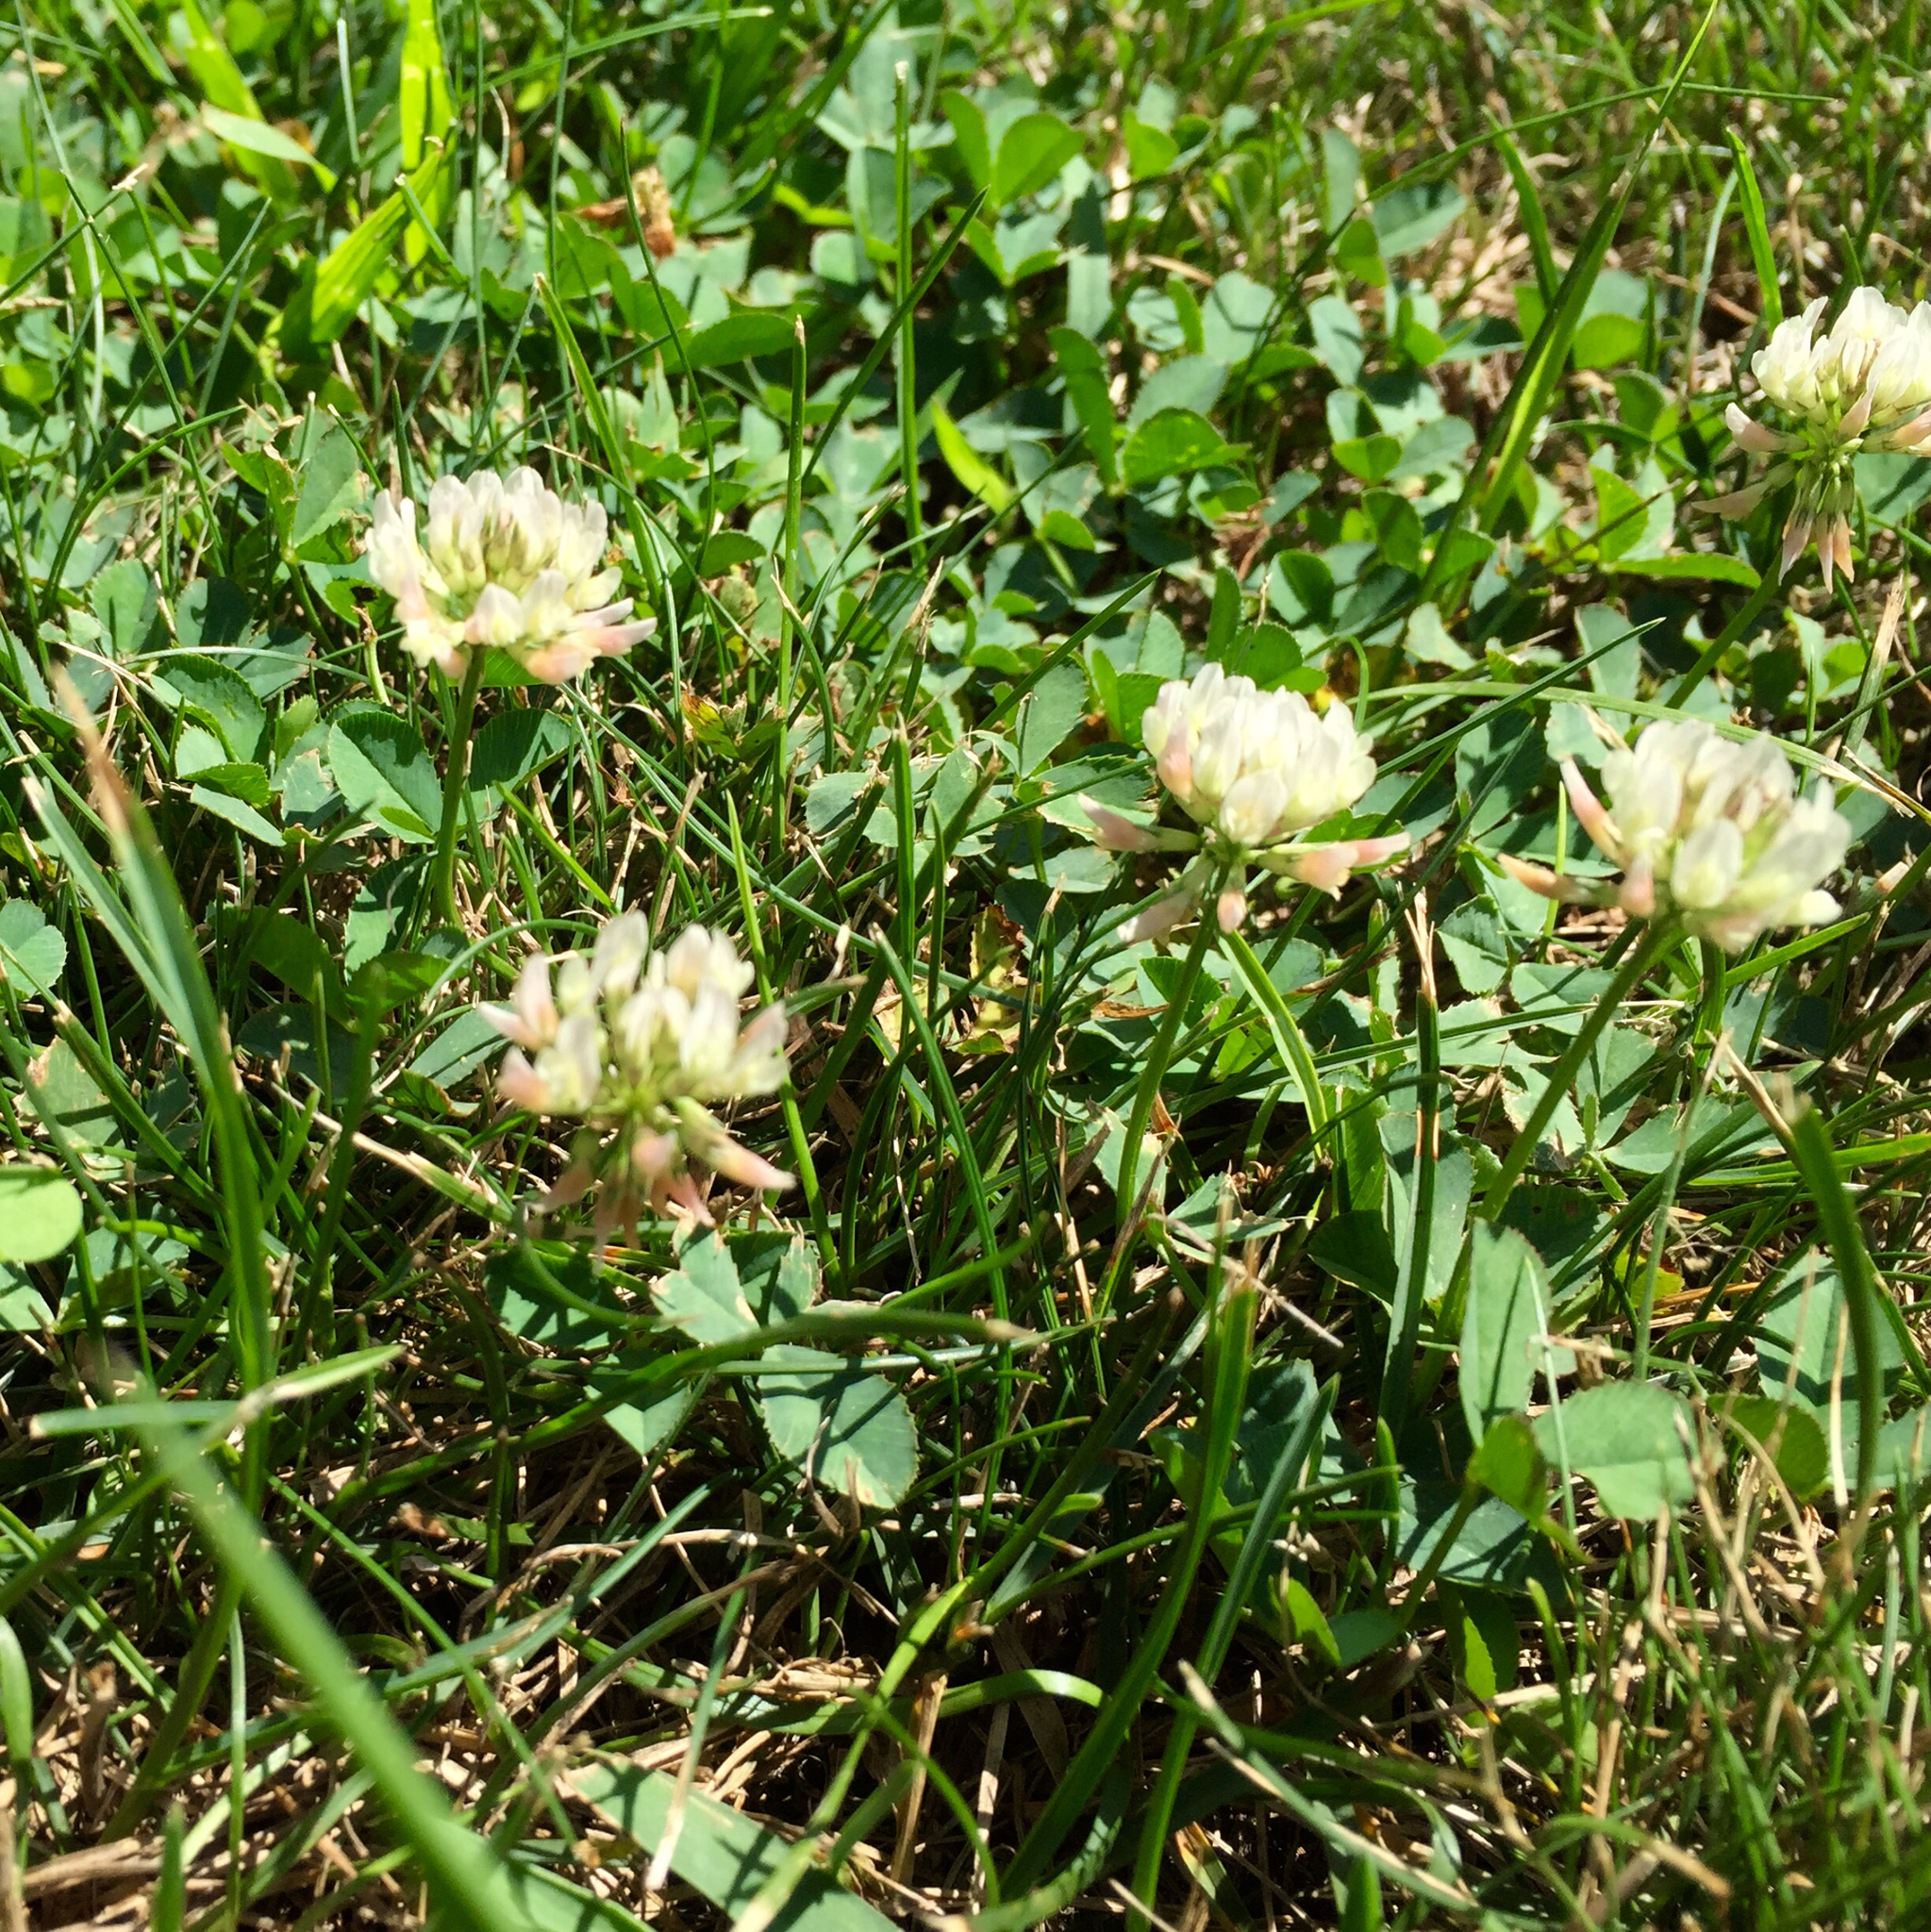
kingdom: Plantae
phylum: Tracheophyta
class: Magnoliopsida
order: Fabales
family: Fabaceae
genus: Trifolium
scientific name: Trifolium repens
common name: White clover
